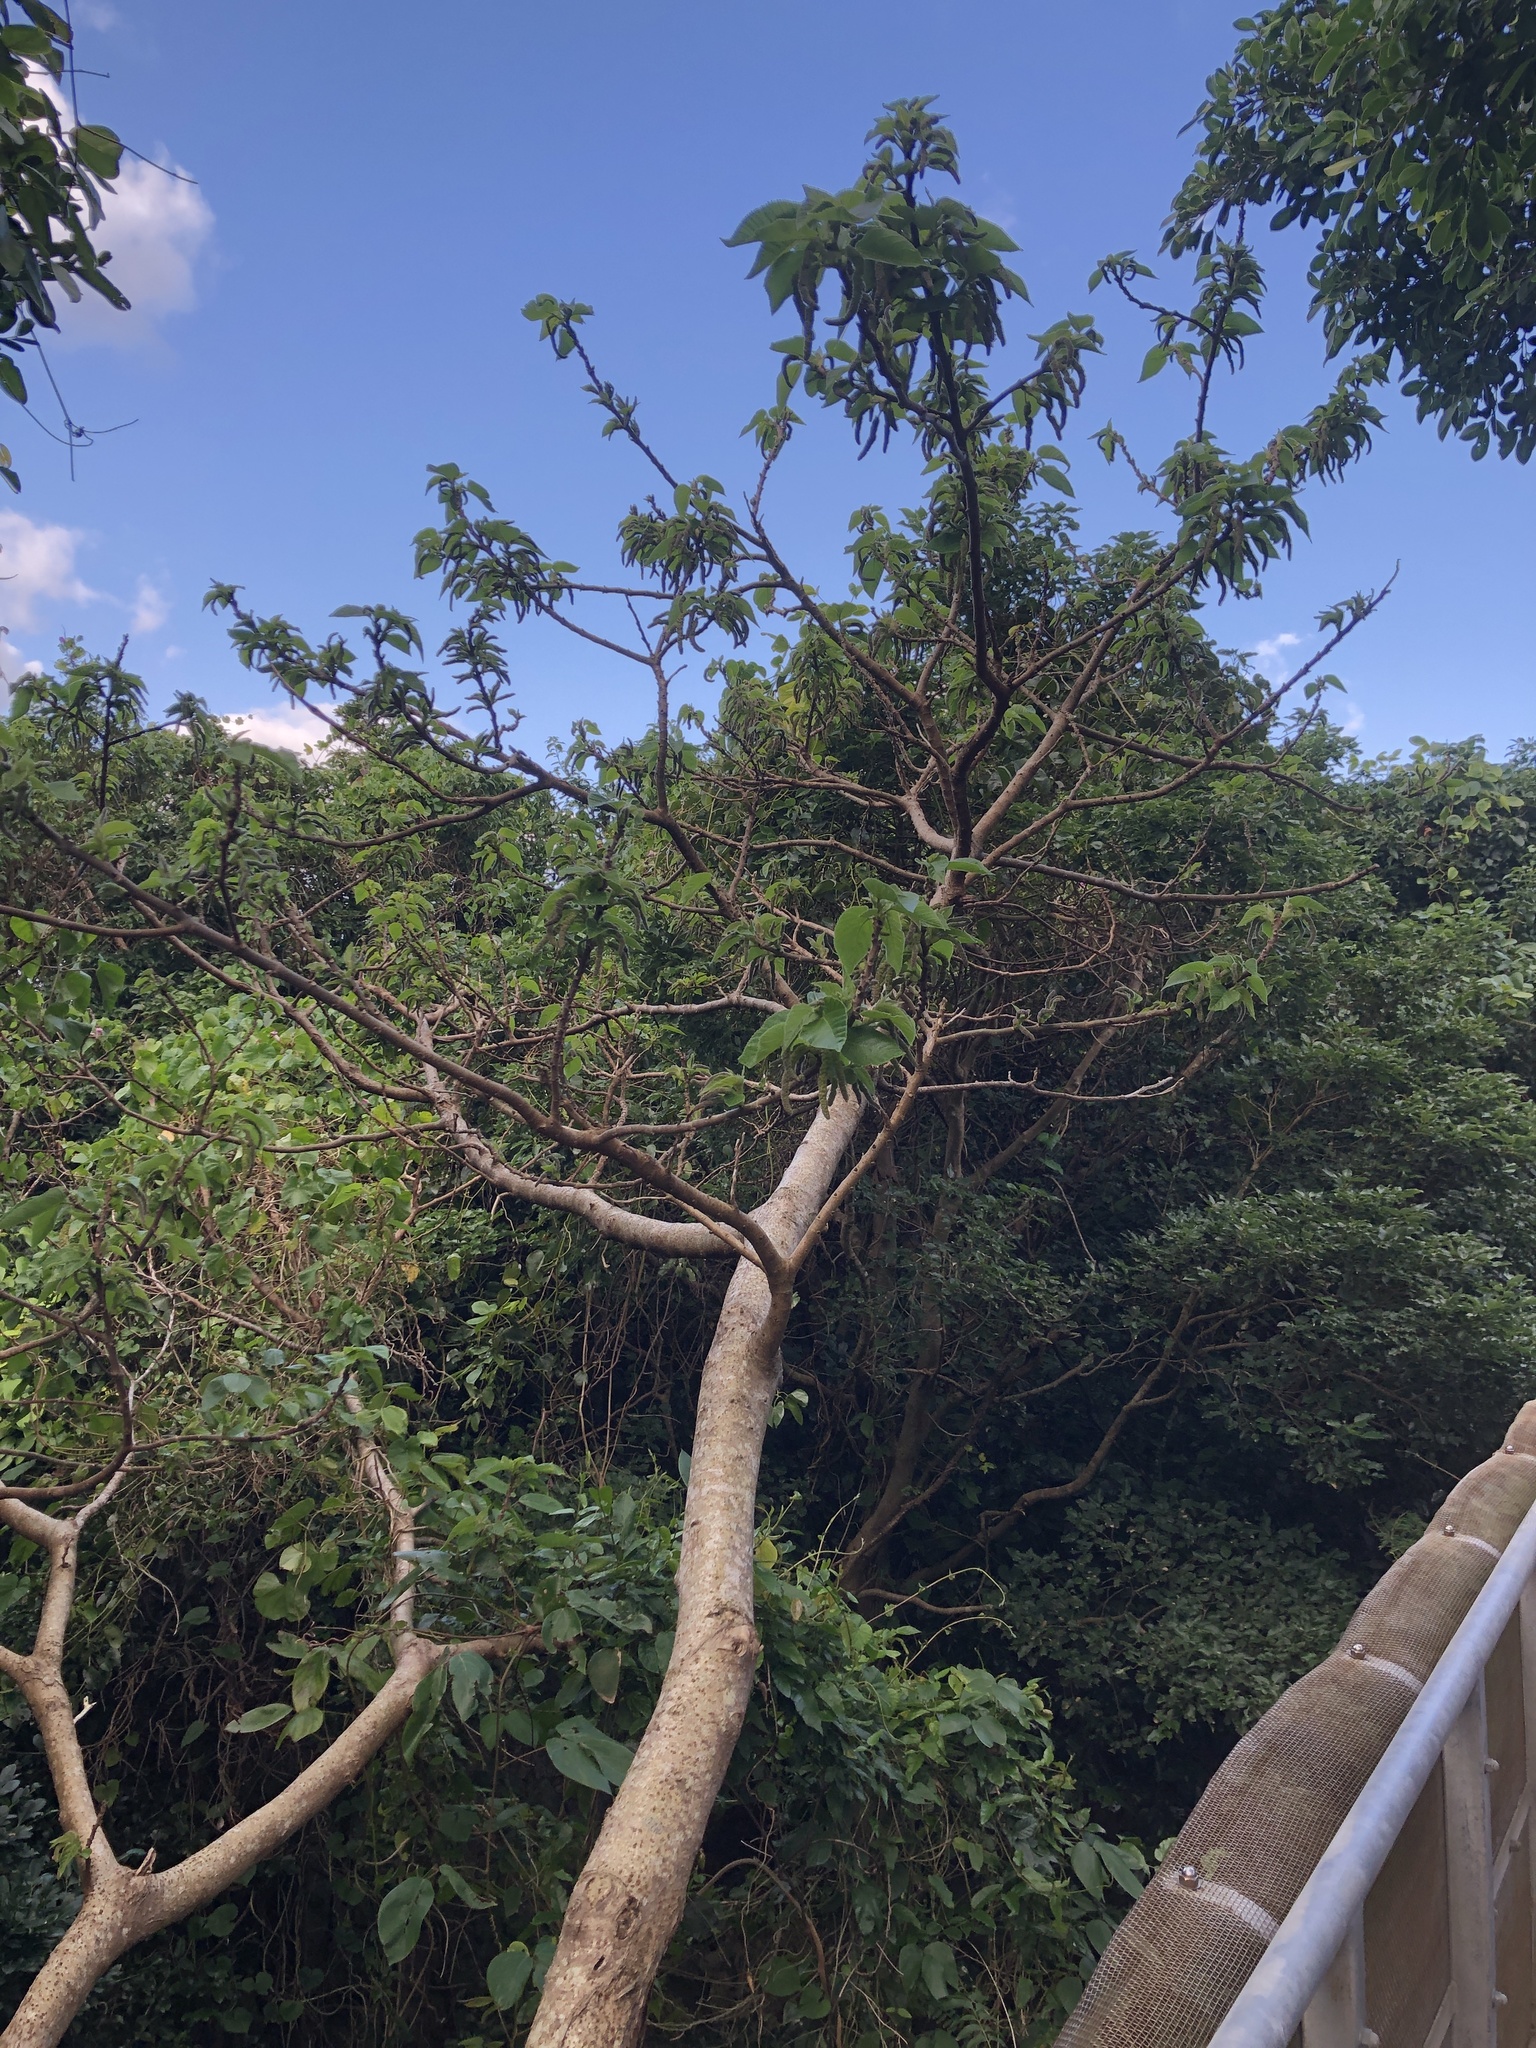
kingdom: Plantae
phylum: Tracheophyta
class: Magnoliopsida
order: Rosales
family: Moraceae
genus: Broussonetia
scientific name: Broussonetia papyrifera
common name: Paper mulberry
